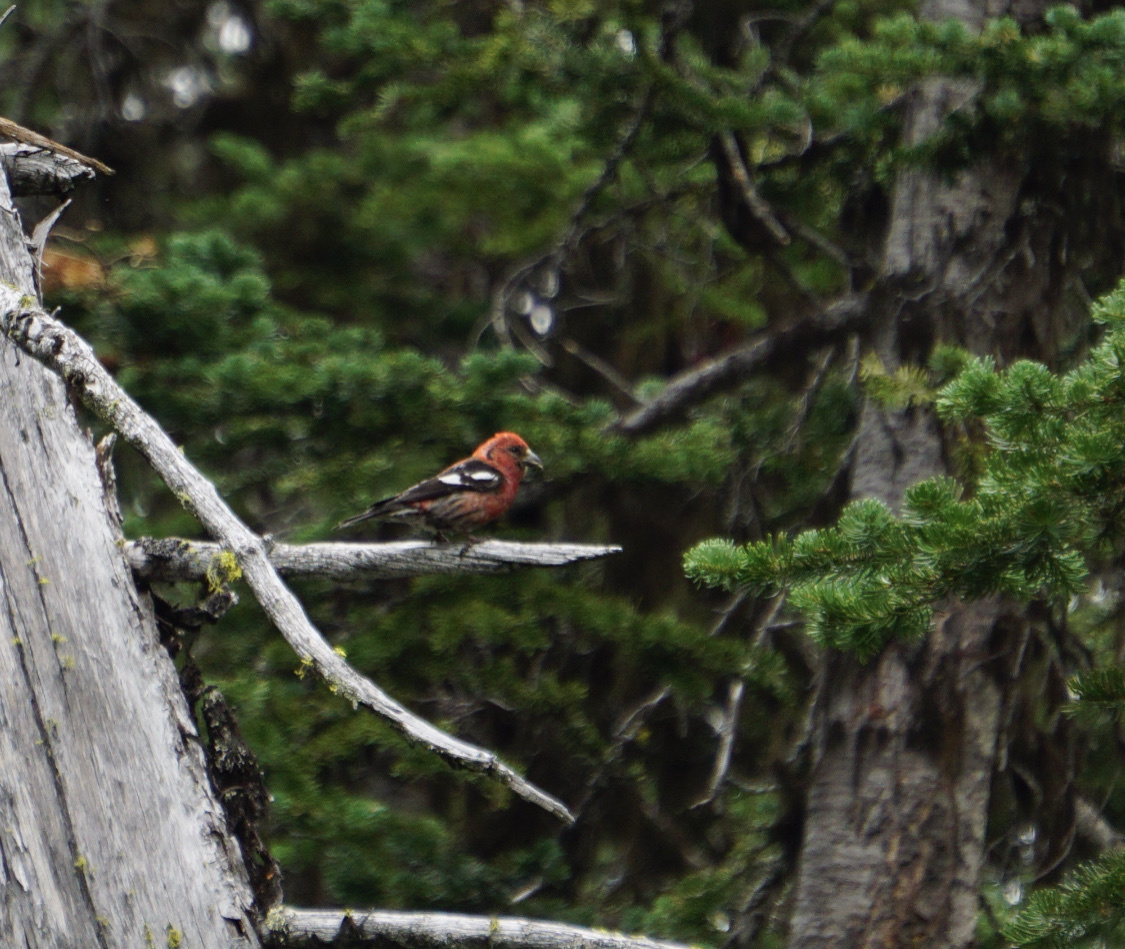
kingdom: Animalia
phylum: Chordata
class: Aves
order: Passeriformes
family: Fringillidae
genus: Loxia
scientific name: Loxia leucoptera
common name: Two-barred crossbill
